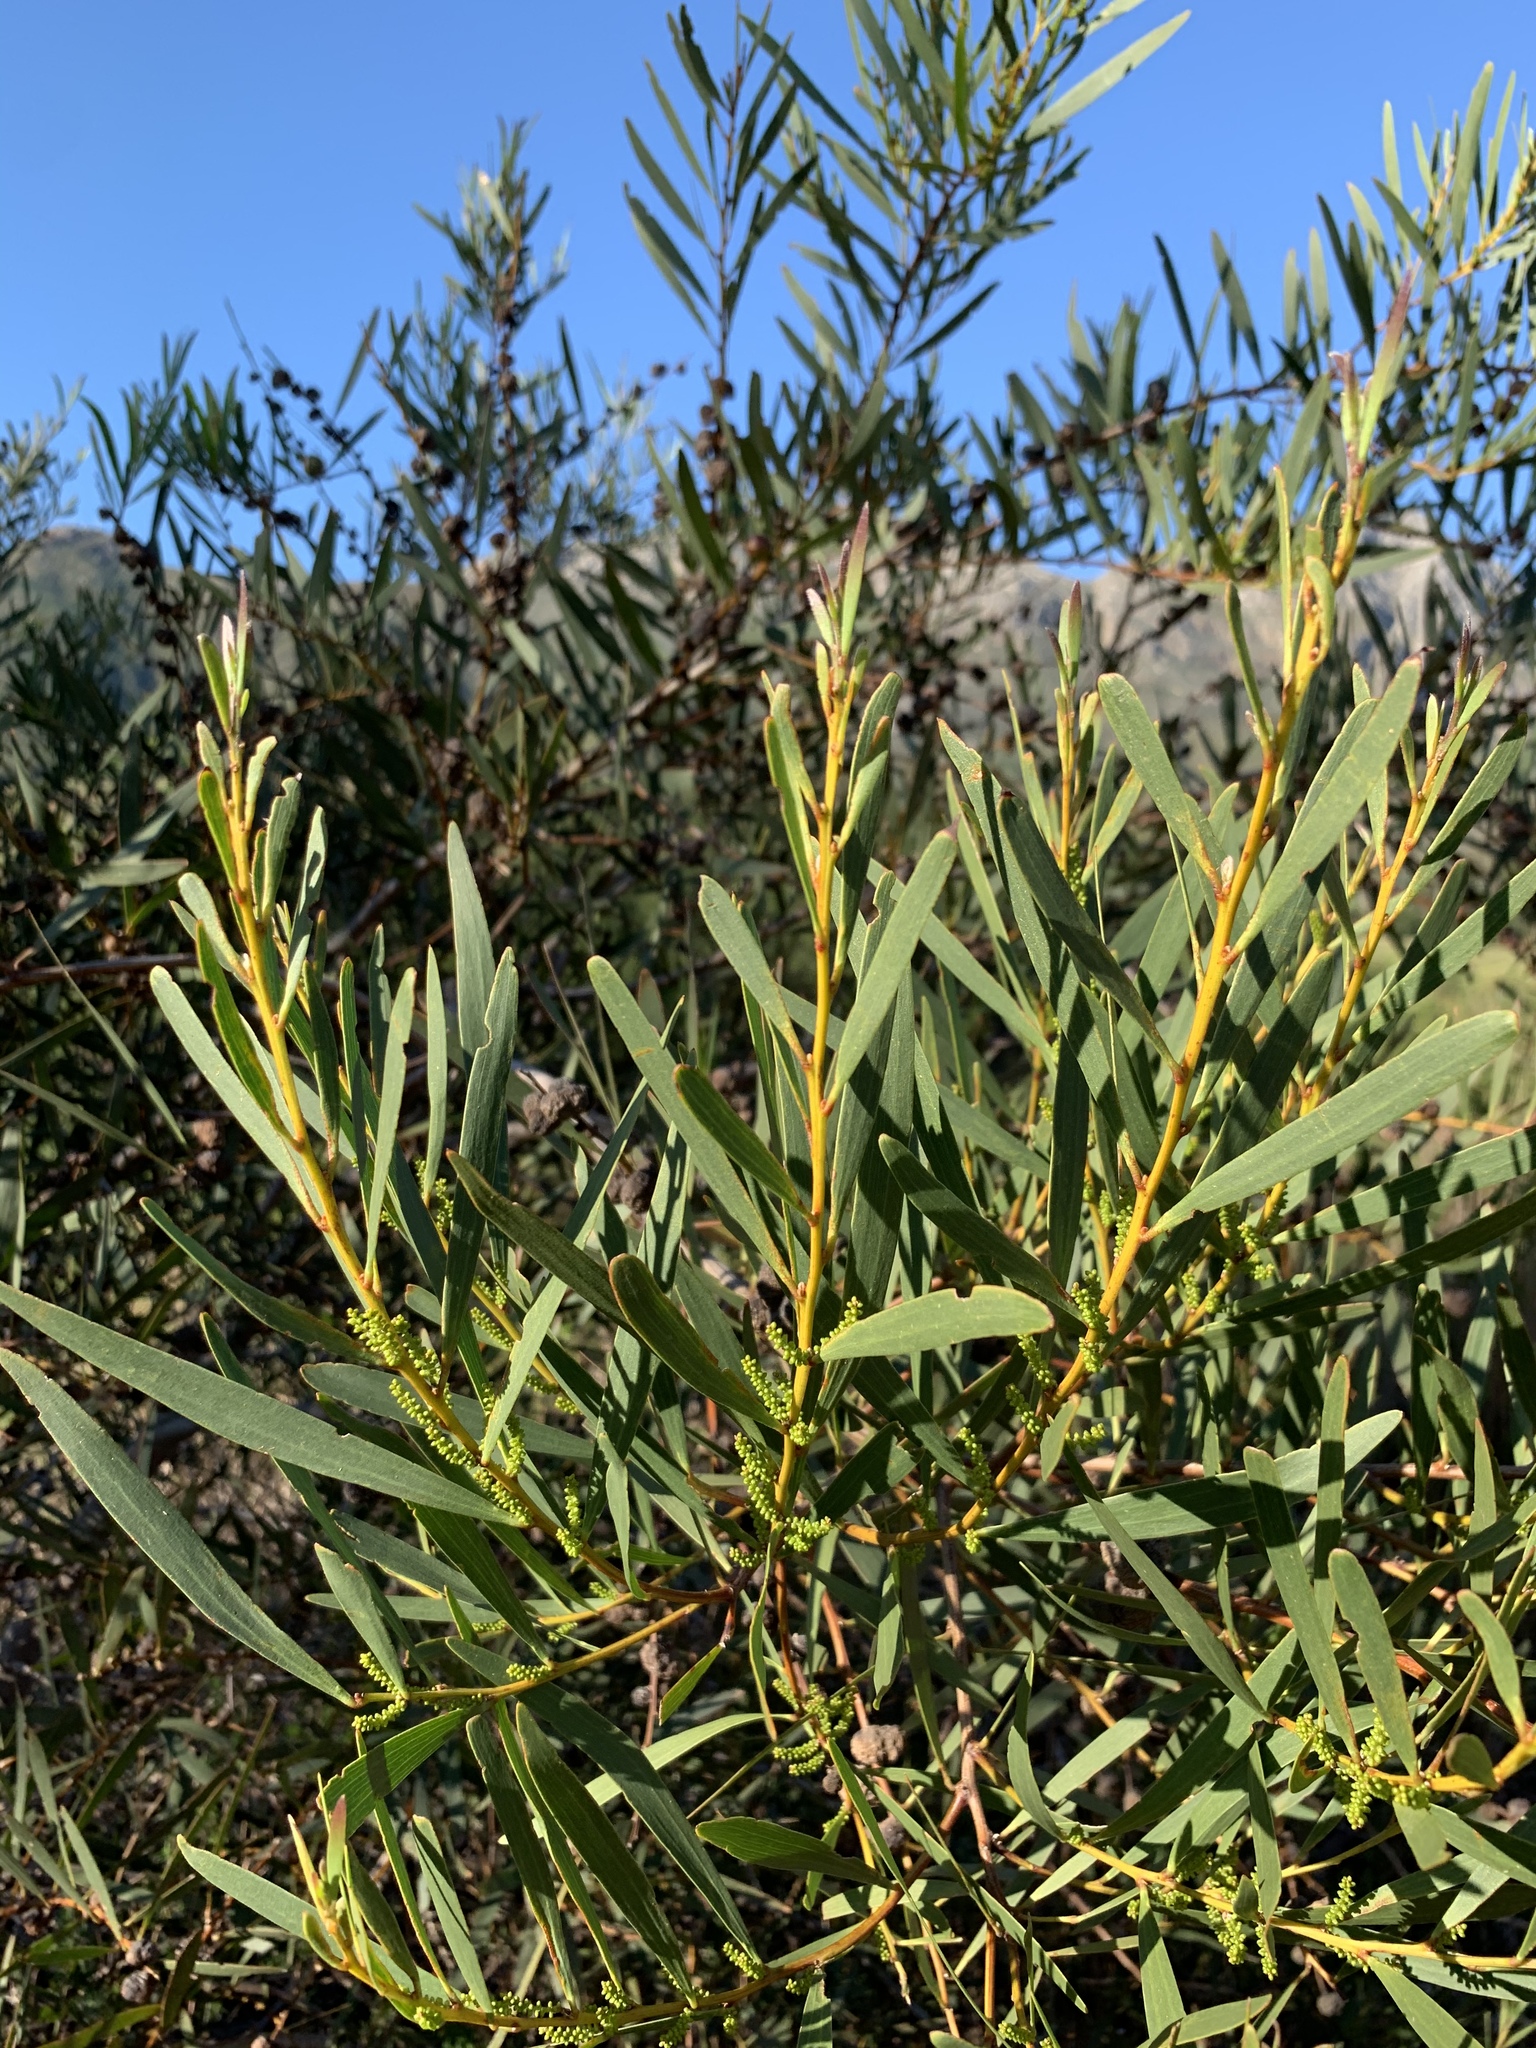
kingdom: Plantae
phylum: Tracheophyta
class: Magnoliopsida
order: Fabales
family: Fabaceae
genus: Acacia
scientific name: Acacia longifolia
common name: Sydney golden wattle
